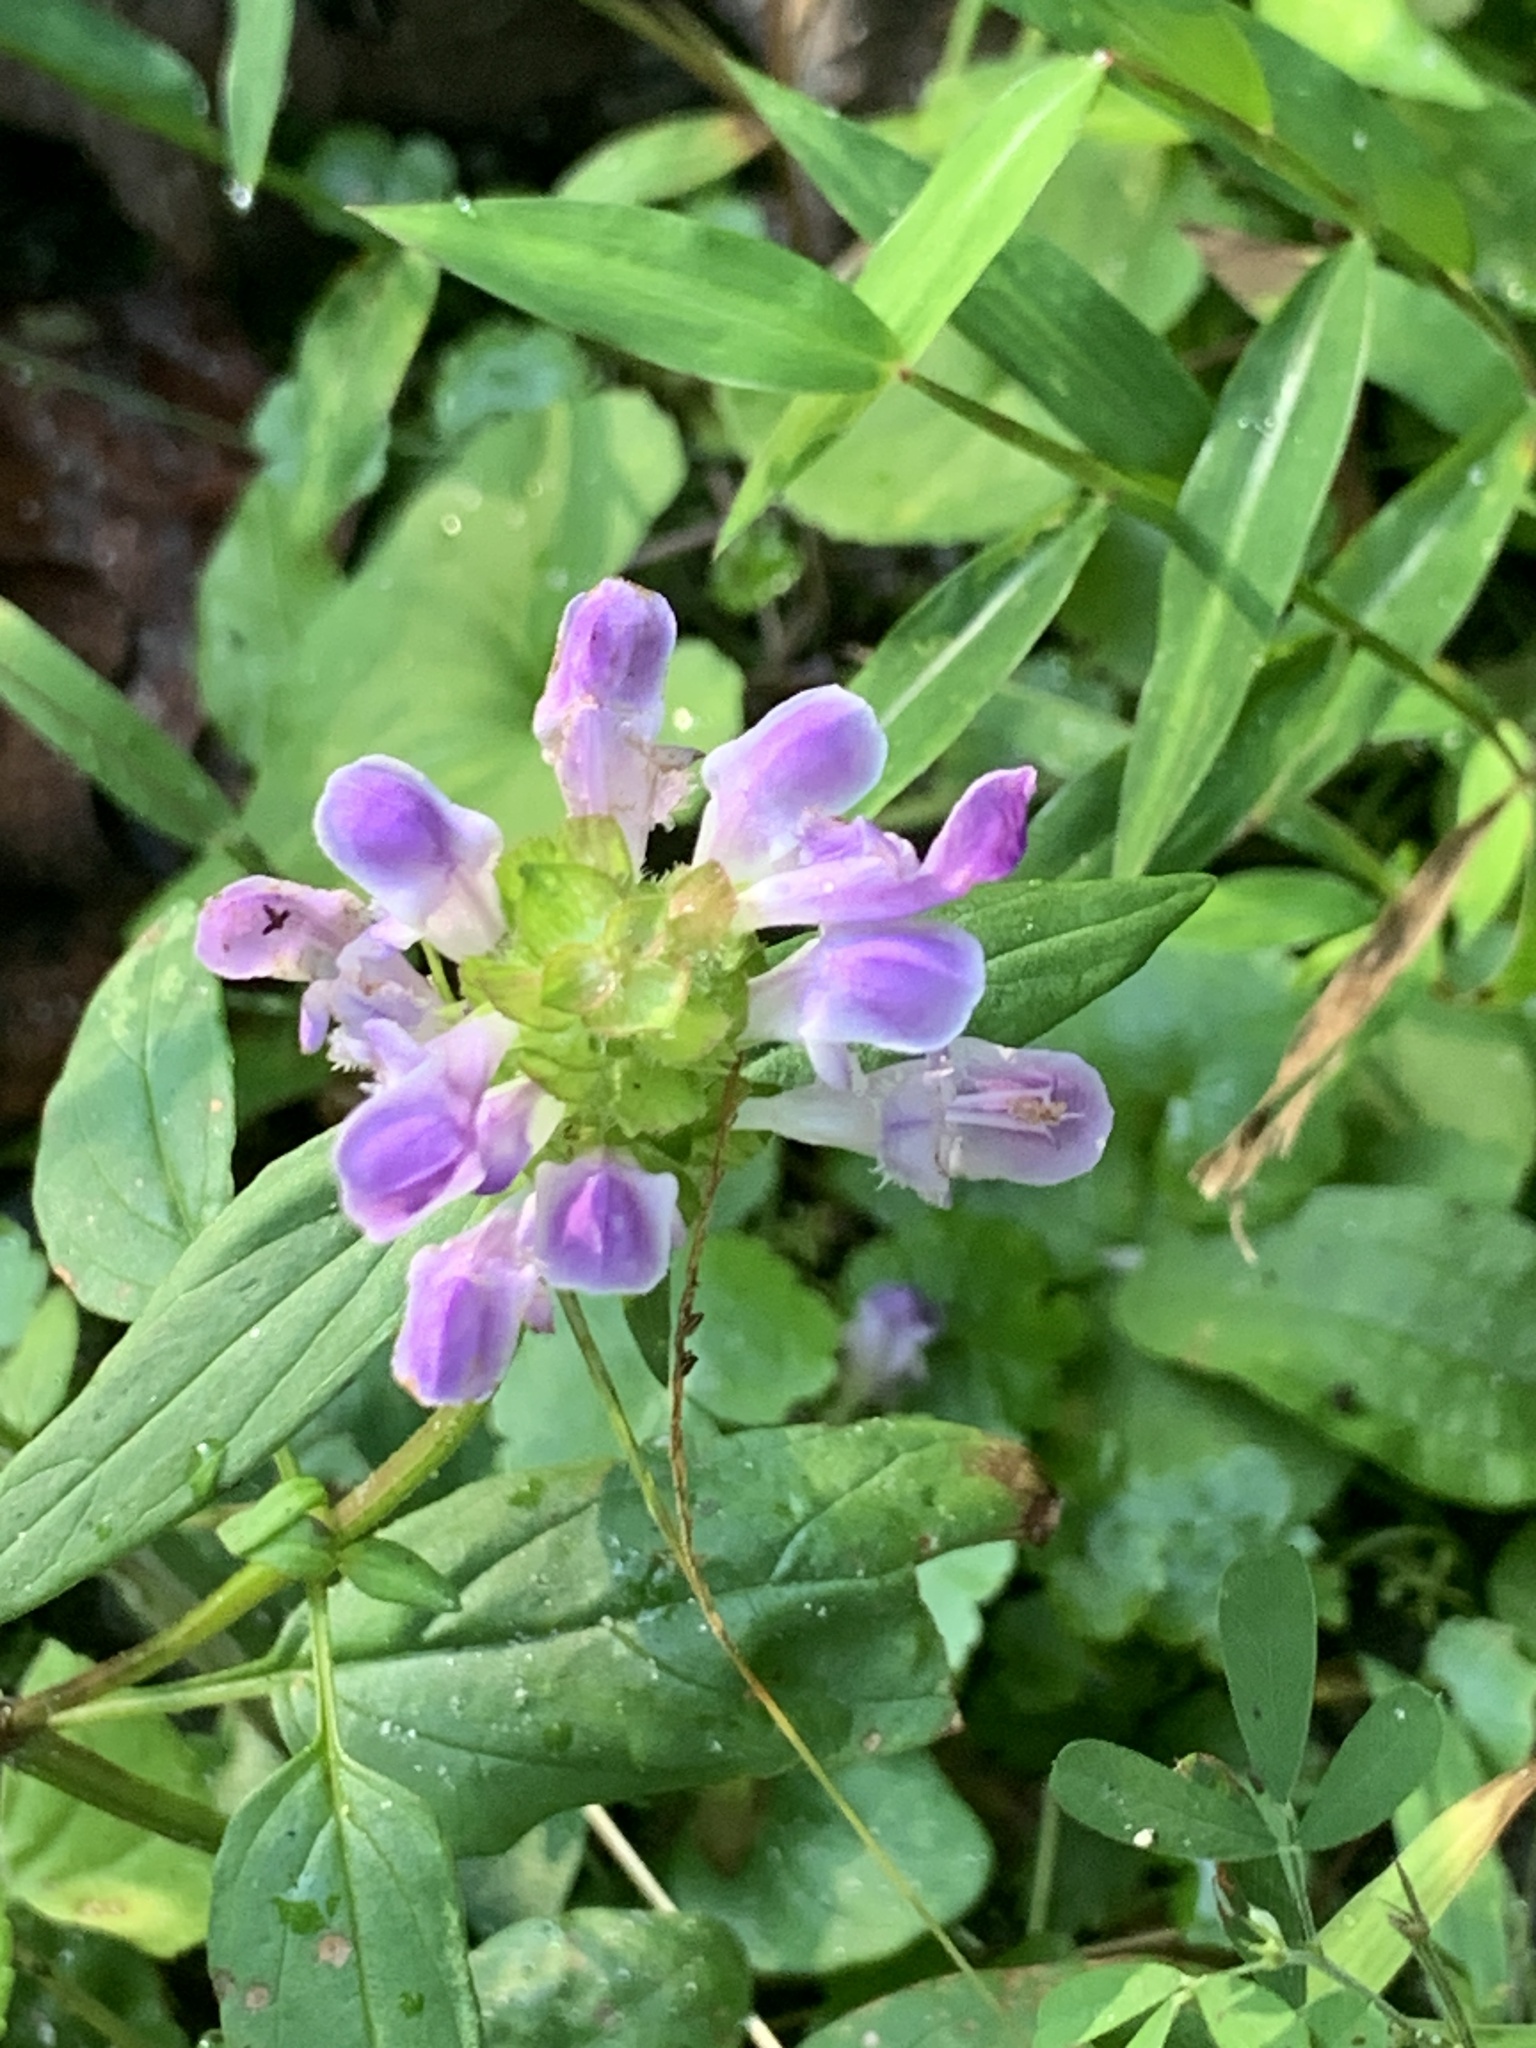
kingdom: Plantae
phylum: Tracheophyta
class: Magnoliopsida
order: Lamiales
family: Lamiaceae
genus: Prunella
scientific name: Prunella vulgaris
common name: Heal-all
